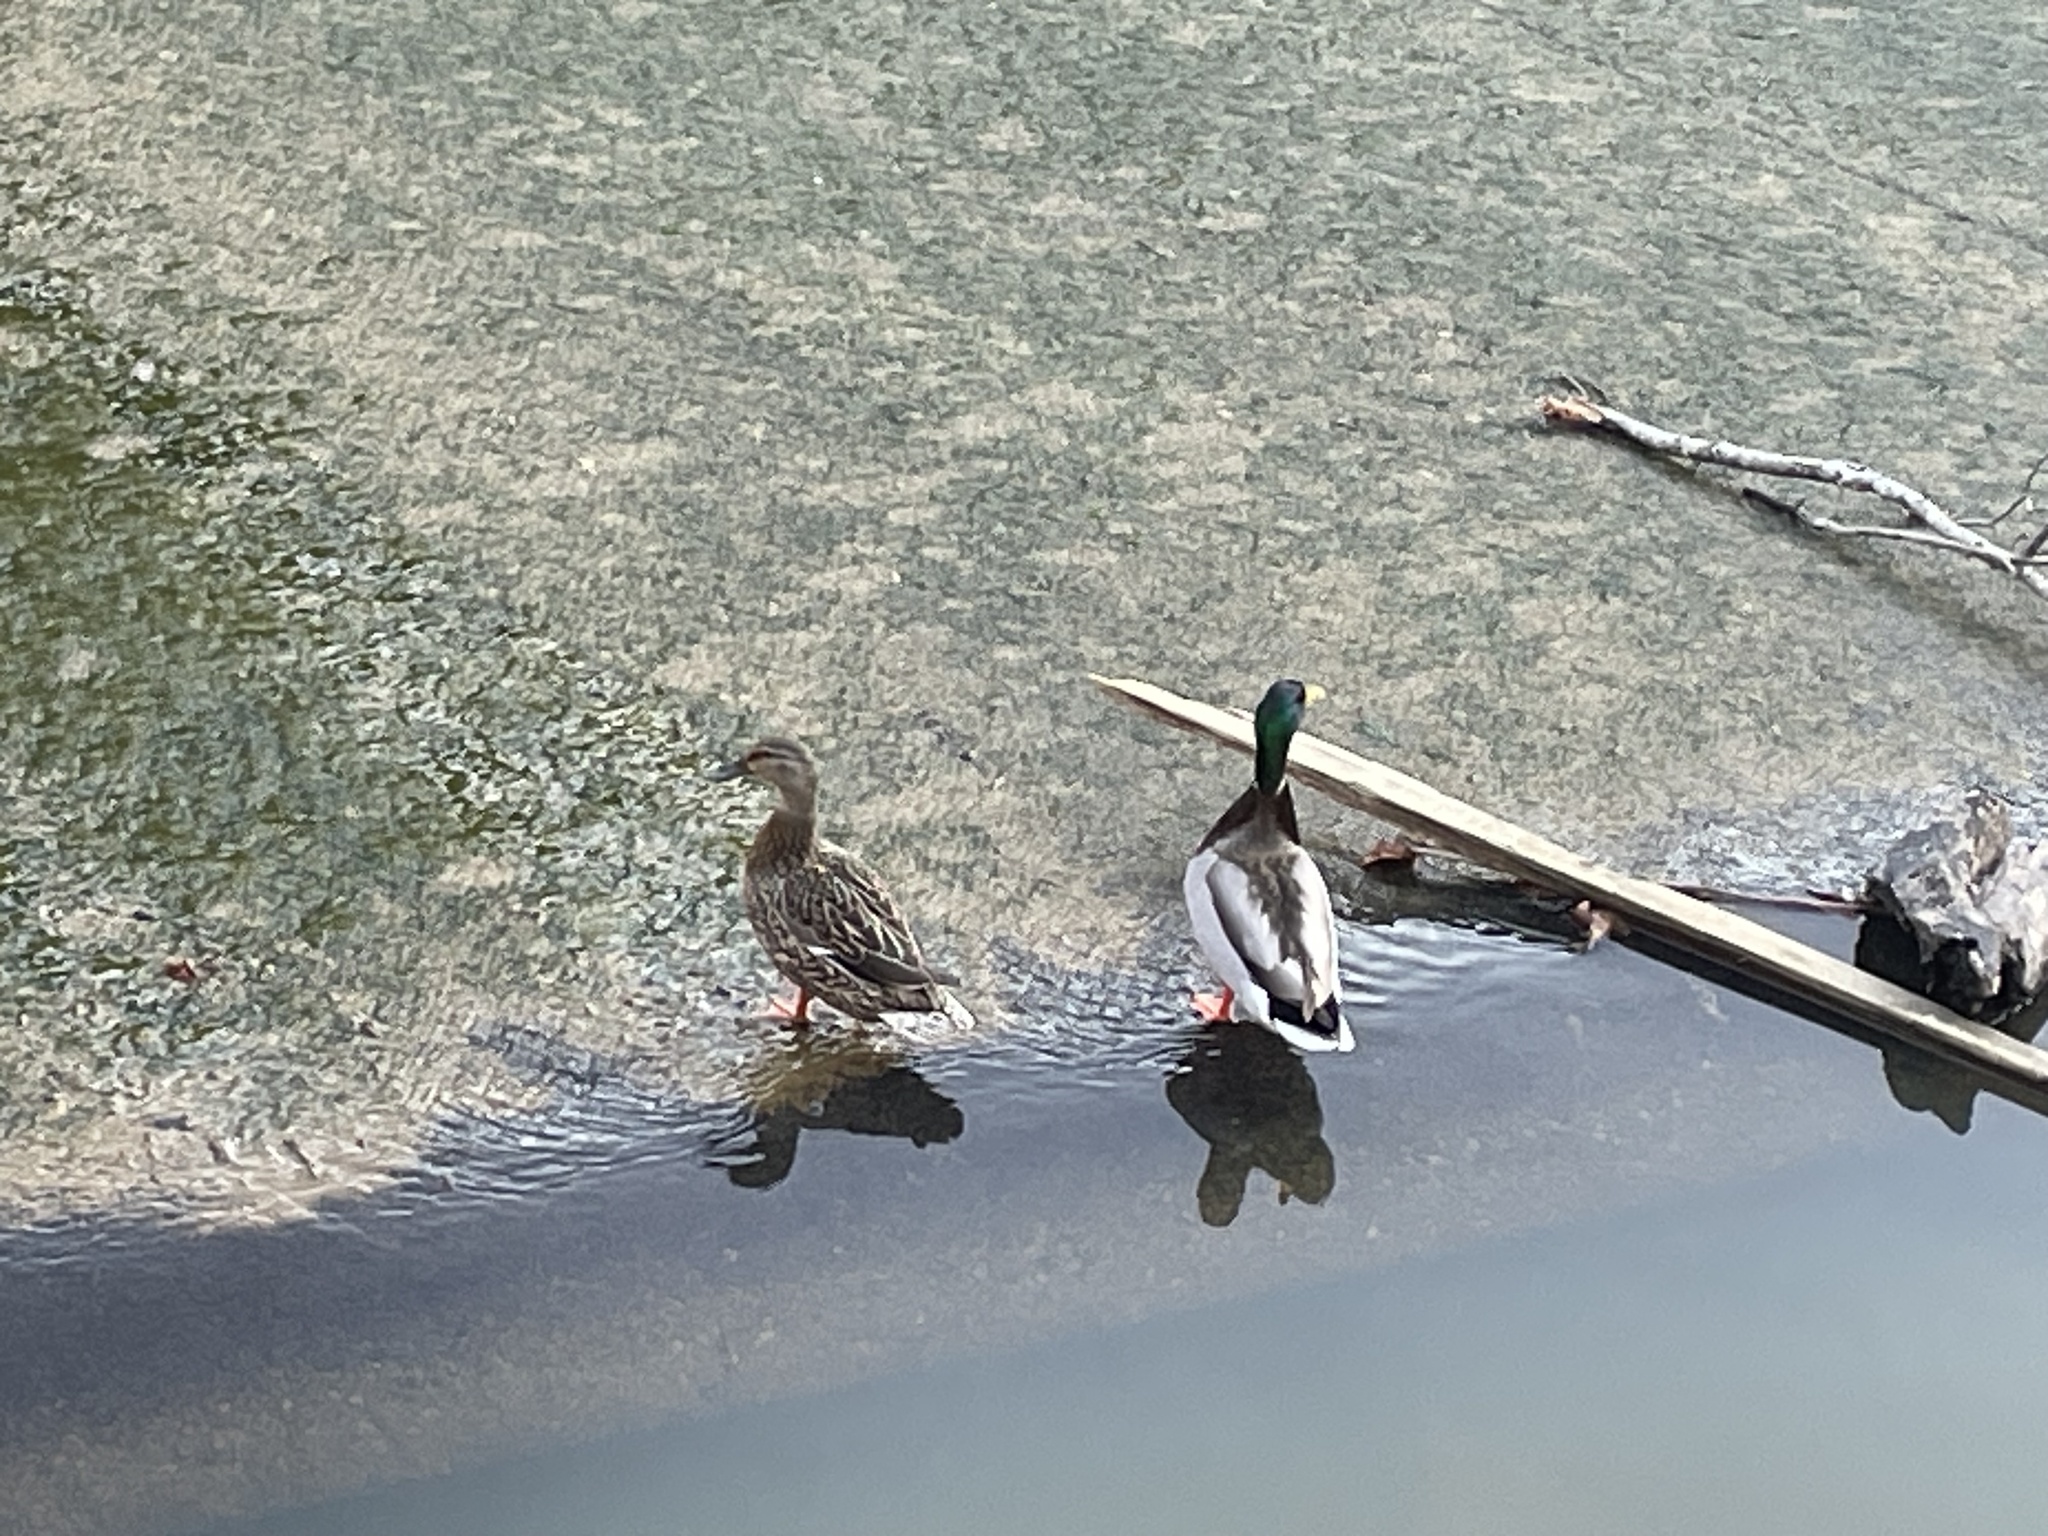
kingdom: Animalia
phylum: Chordata
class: Aves
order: Anseriformes
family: Anatidae
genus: Anas
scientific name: Anas platyrhynchos
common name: Mallard
